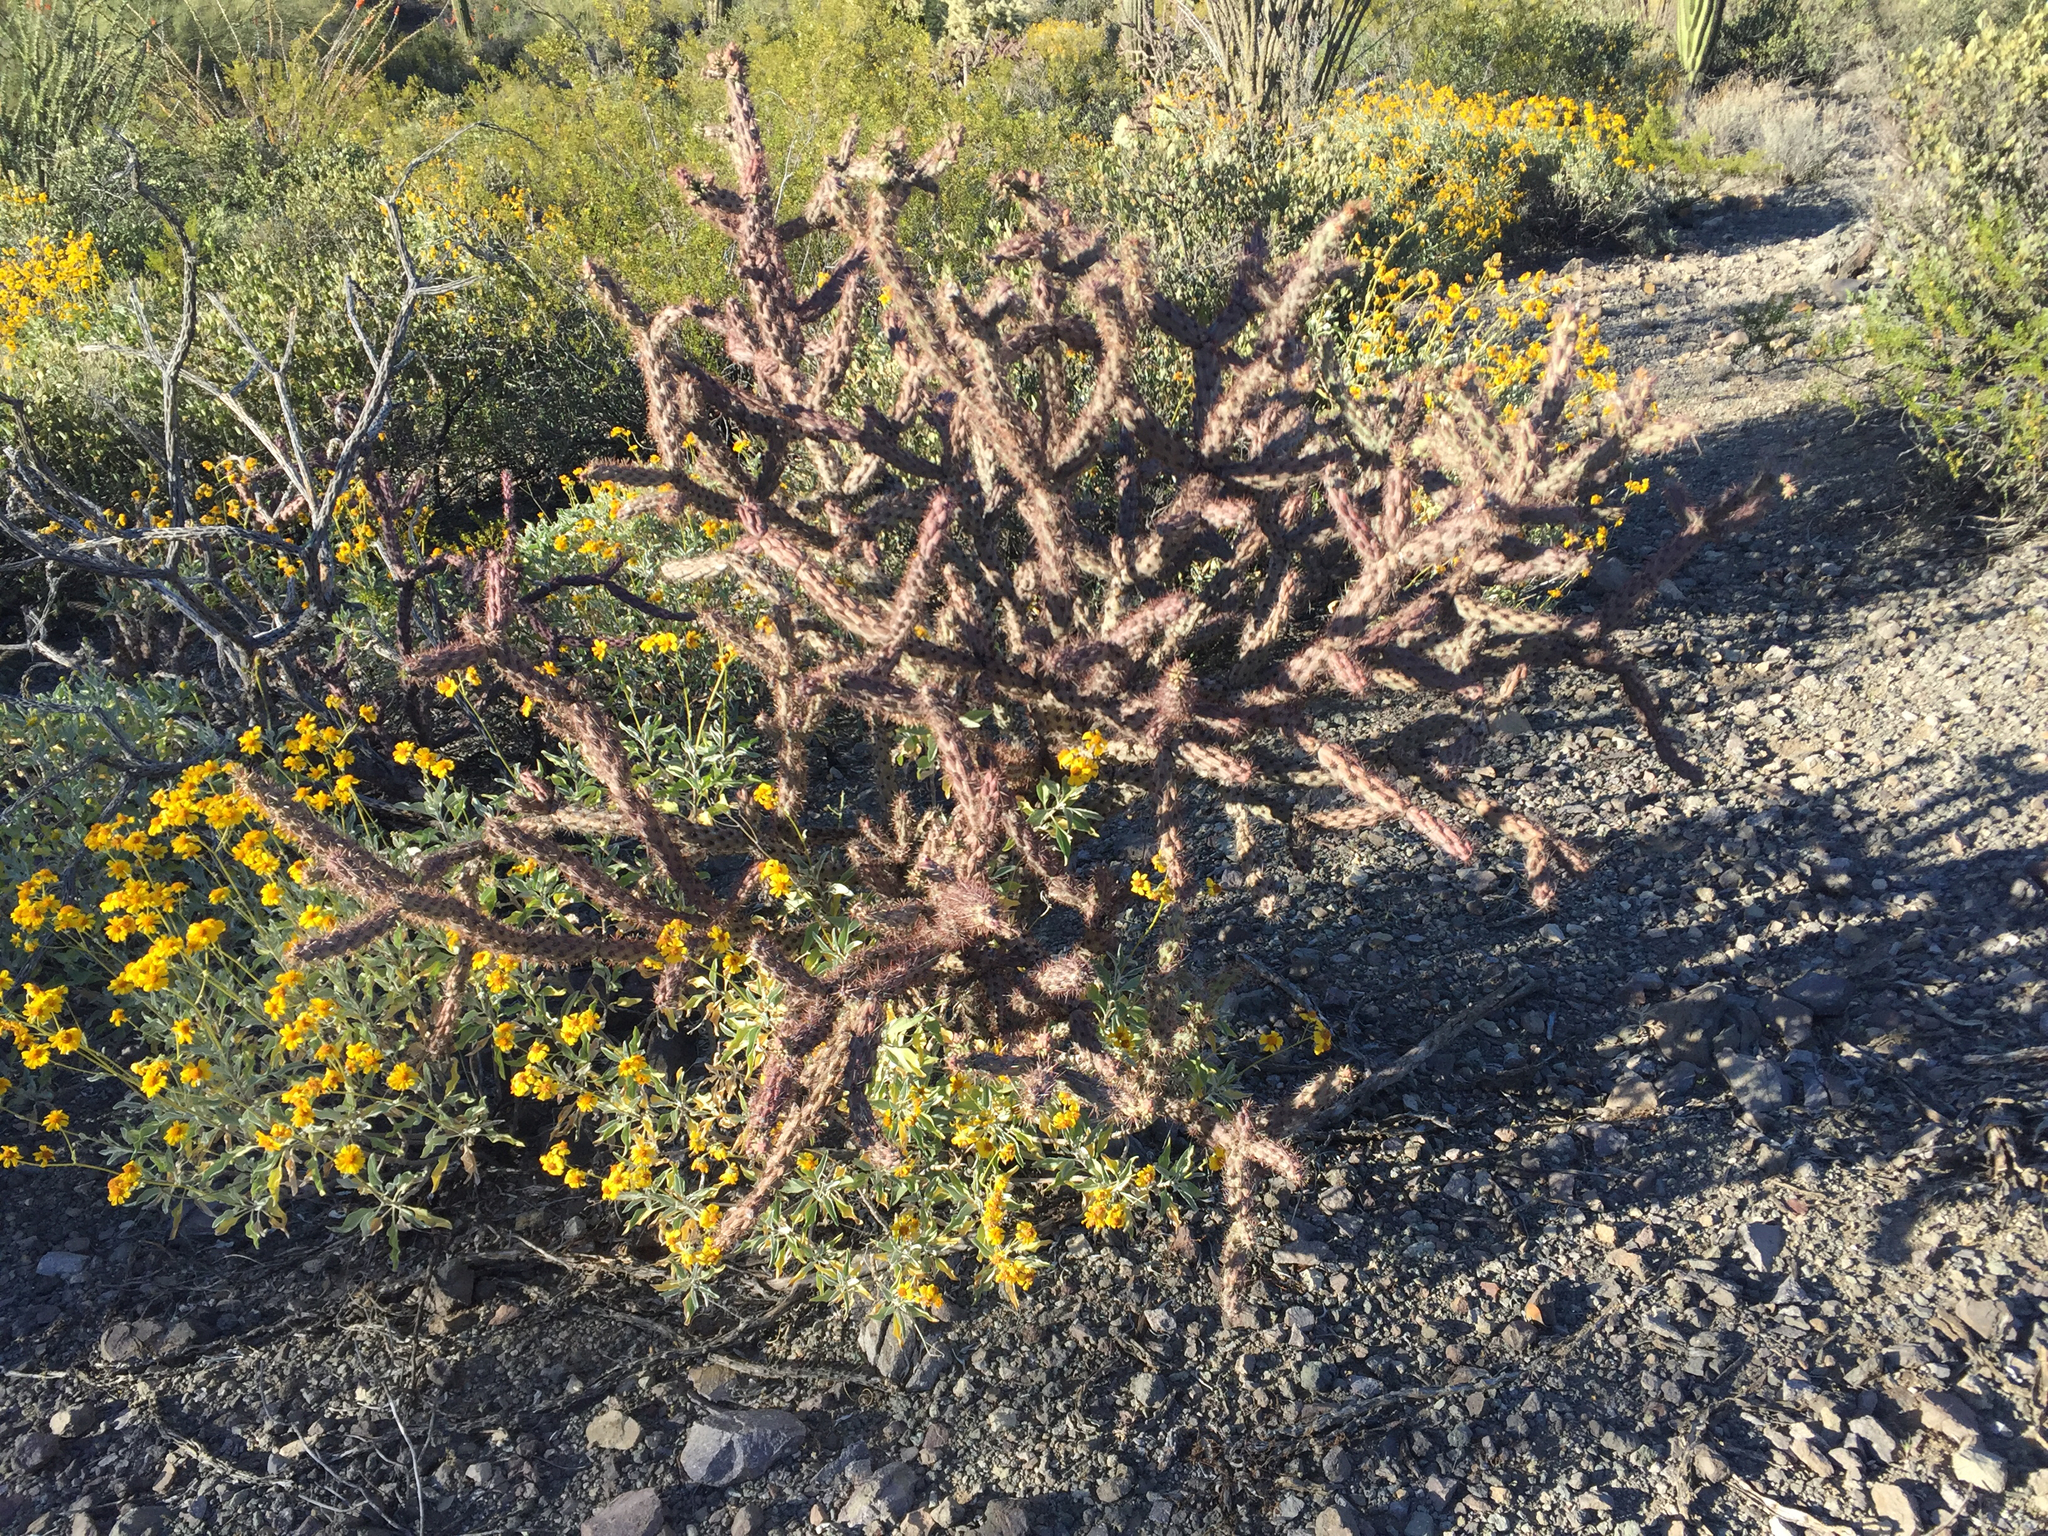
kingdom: Plantae
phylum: Tracheophyta
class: Magnoliopsida
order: Caryophyllales
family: Cactaceae
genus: Cylindropuntia
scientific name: Cylindropuntia thurberi
